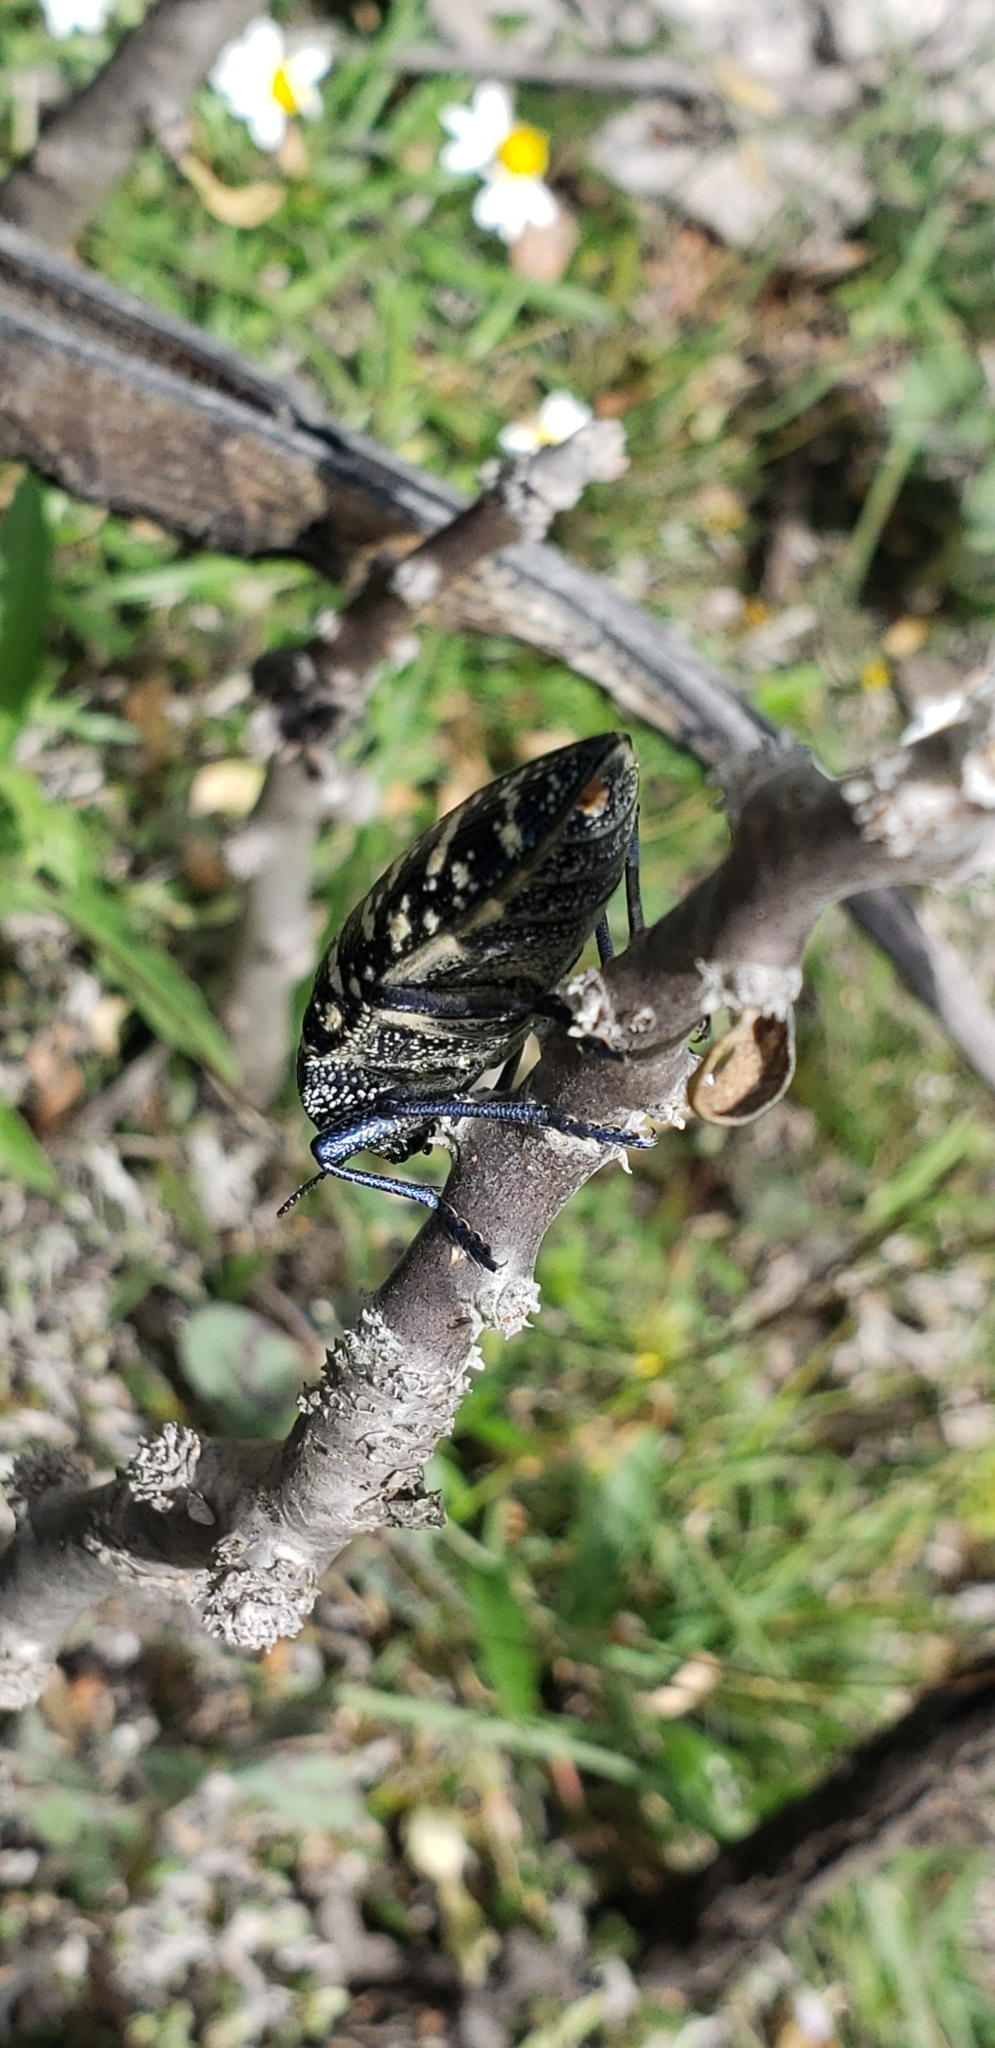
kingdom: Animalia
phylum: Arthropoda
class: Insecta
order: Coleoptera
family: Buprestidae
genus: Lampetis
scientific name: Lampetis dilaticollis
